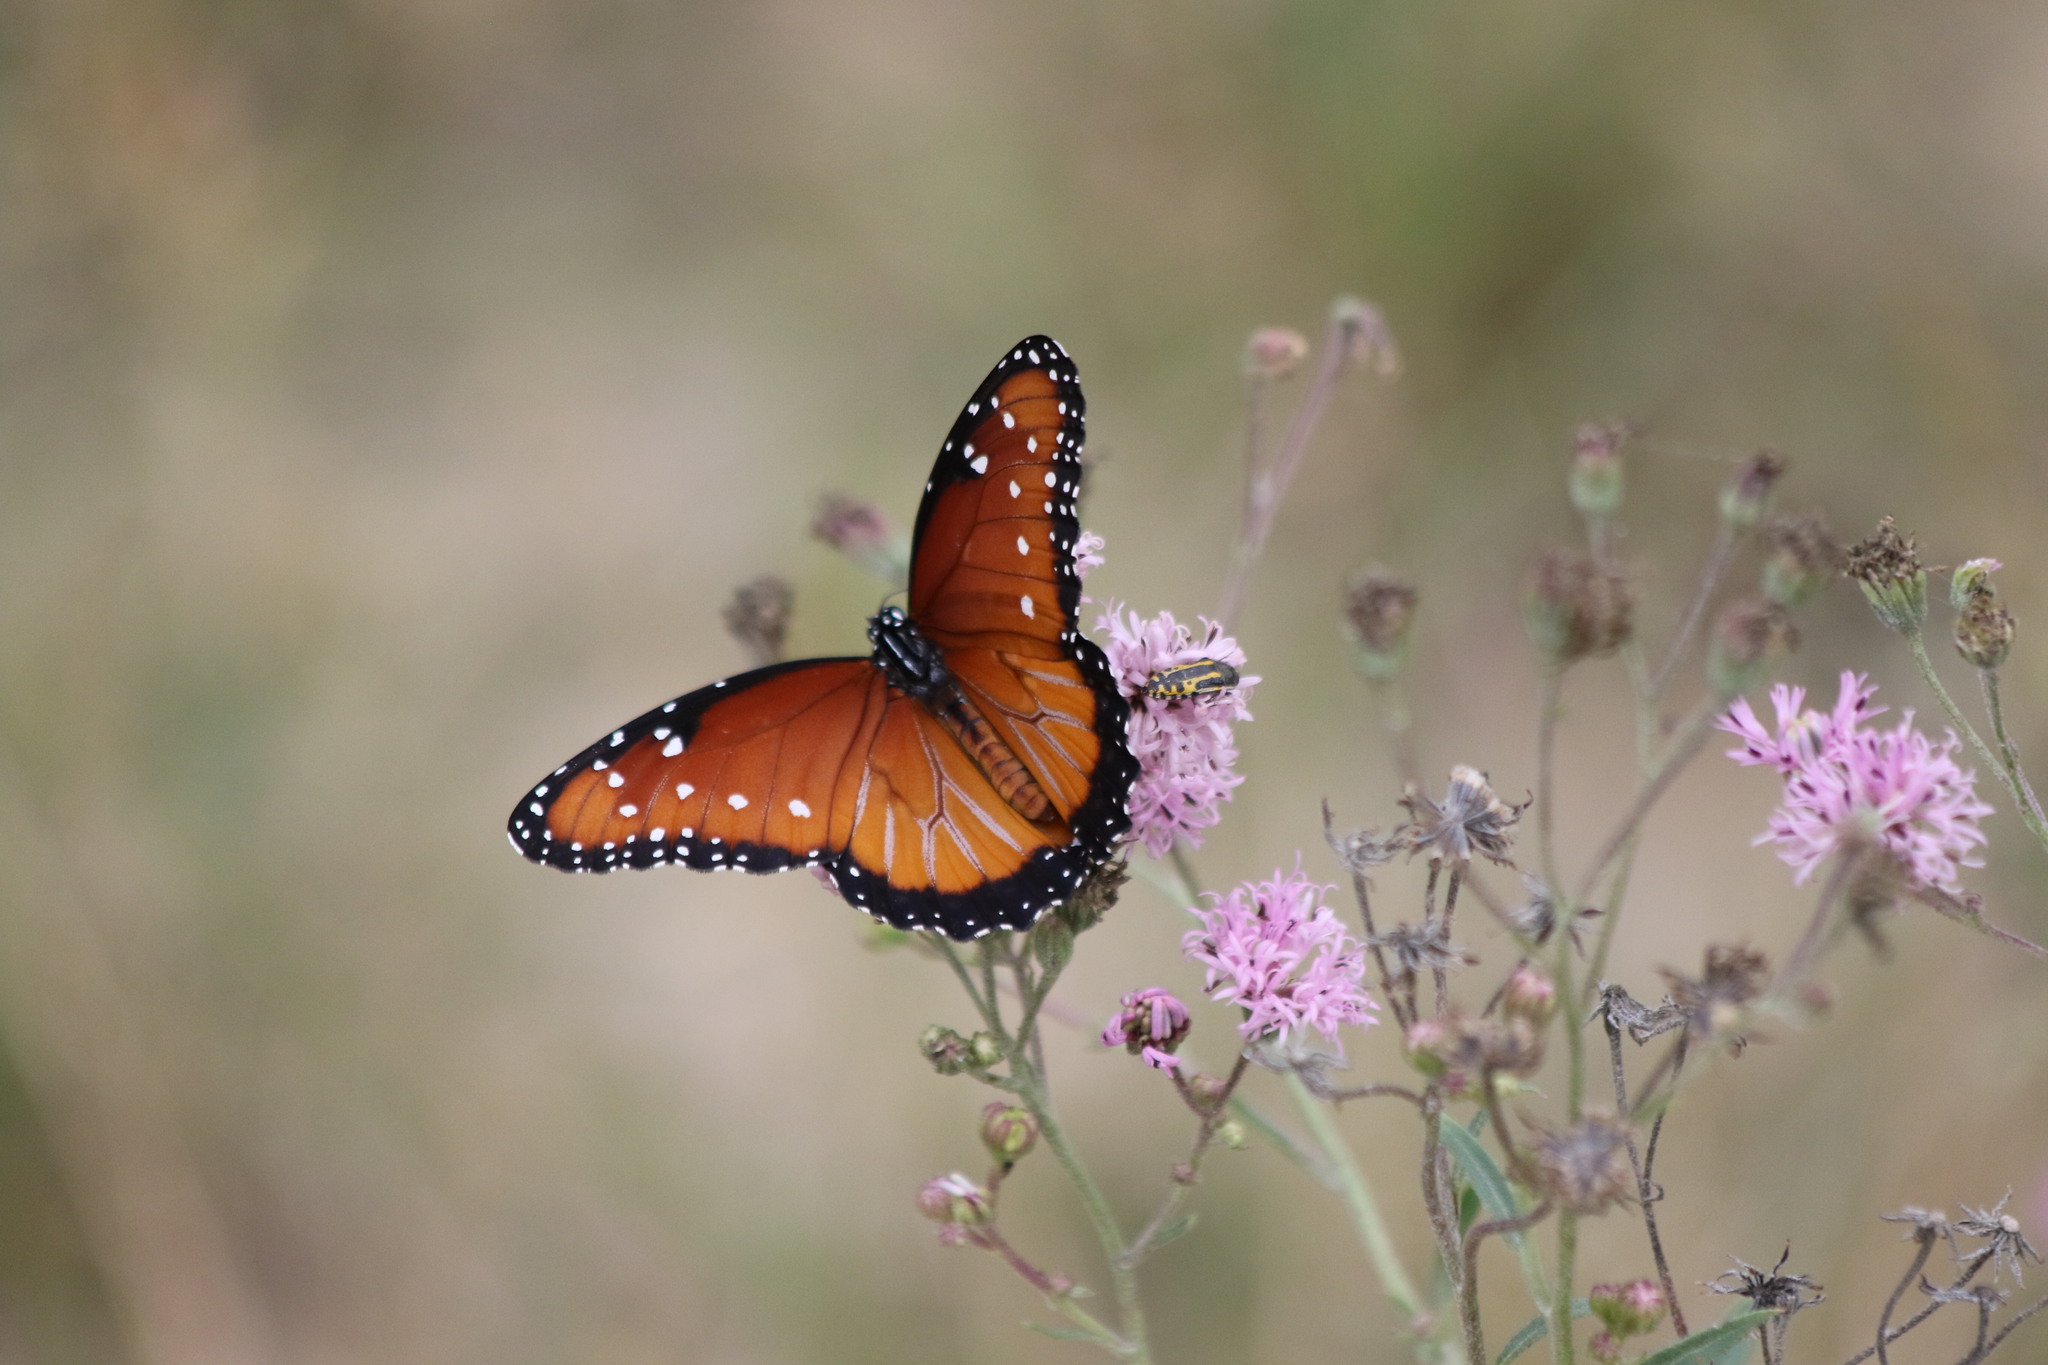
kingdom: Animalia
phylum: Arthropoda
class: Insecta
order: Lepidoptera
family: Nymphalidae
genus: Danaus
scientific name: Danaus gilippus
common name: Queen
